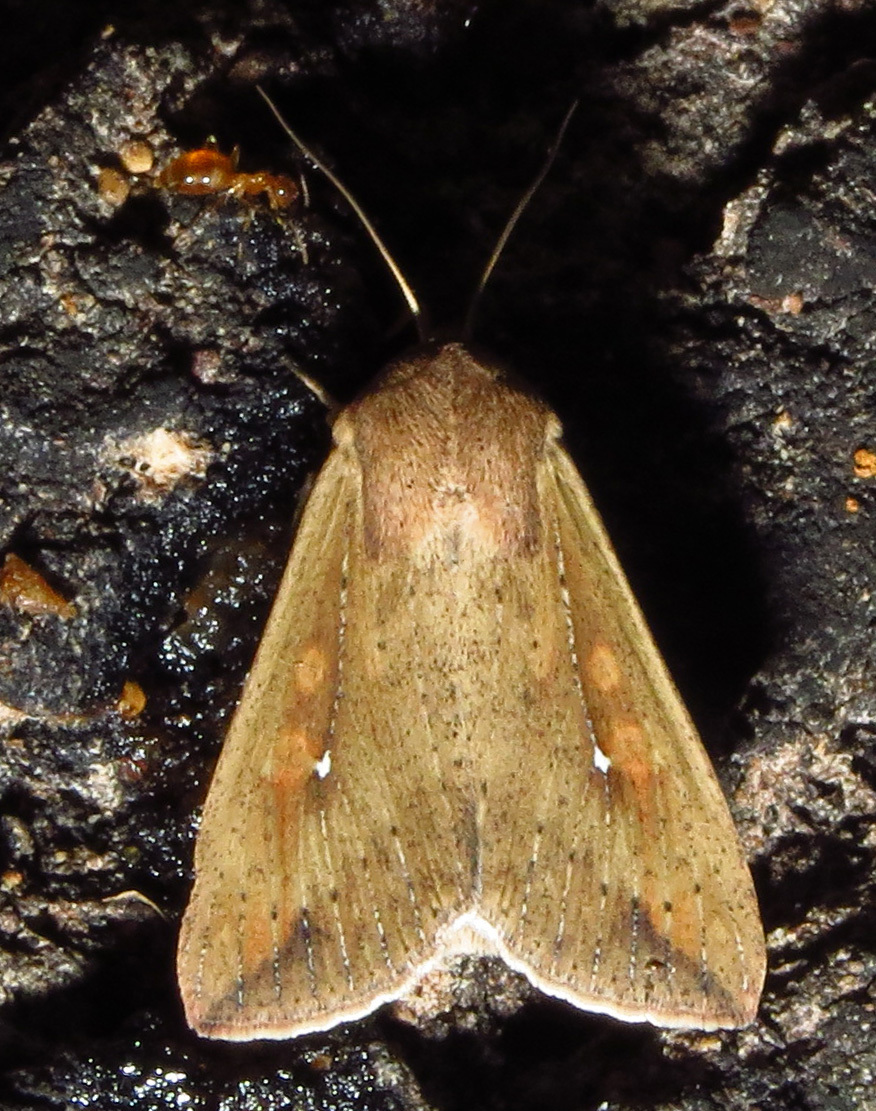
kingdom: Animalia
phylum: Arthropoda
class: Insecta
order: Lepidoptera
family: Noctuidae
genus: Mythimna
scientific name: Mythimna unipuncta
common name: White-speck
